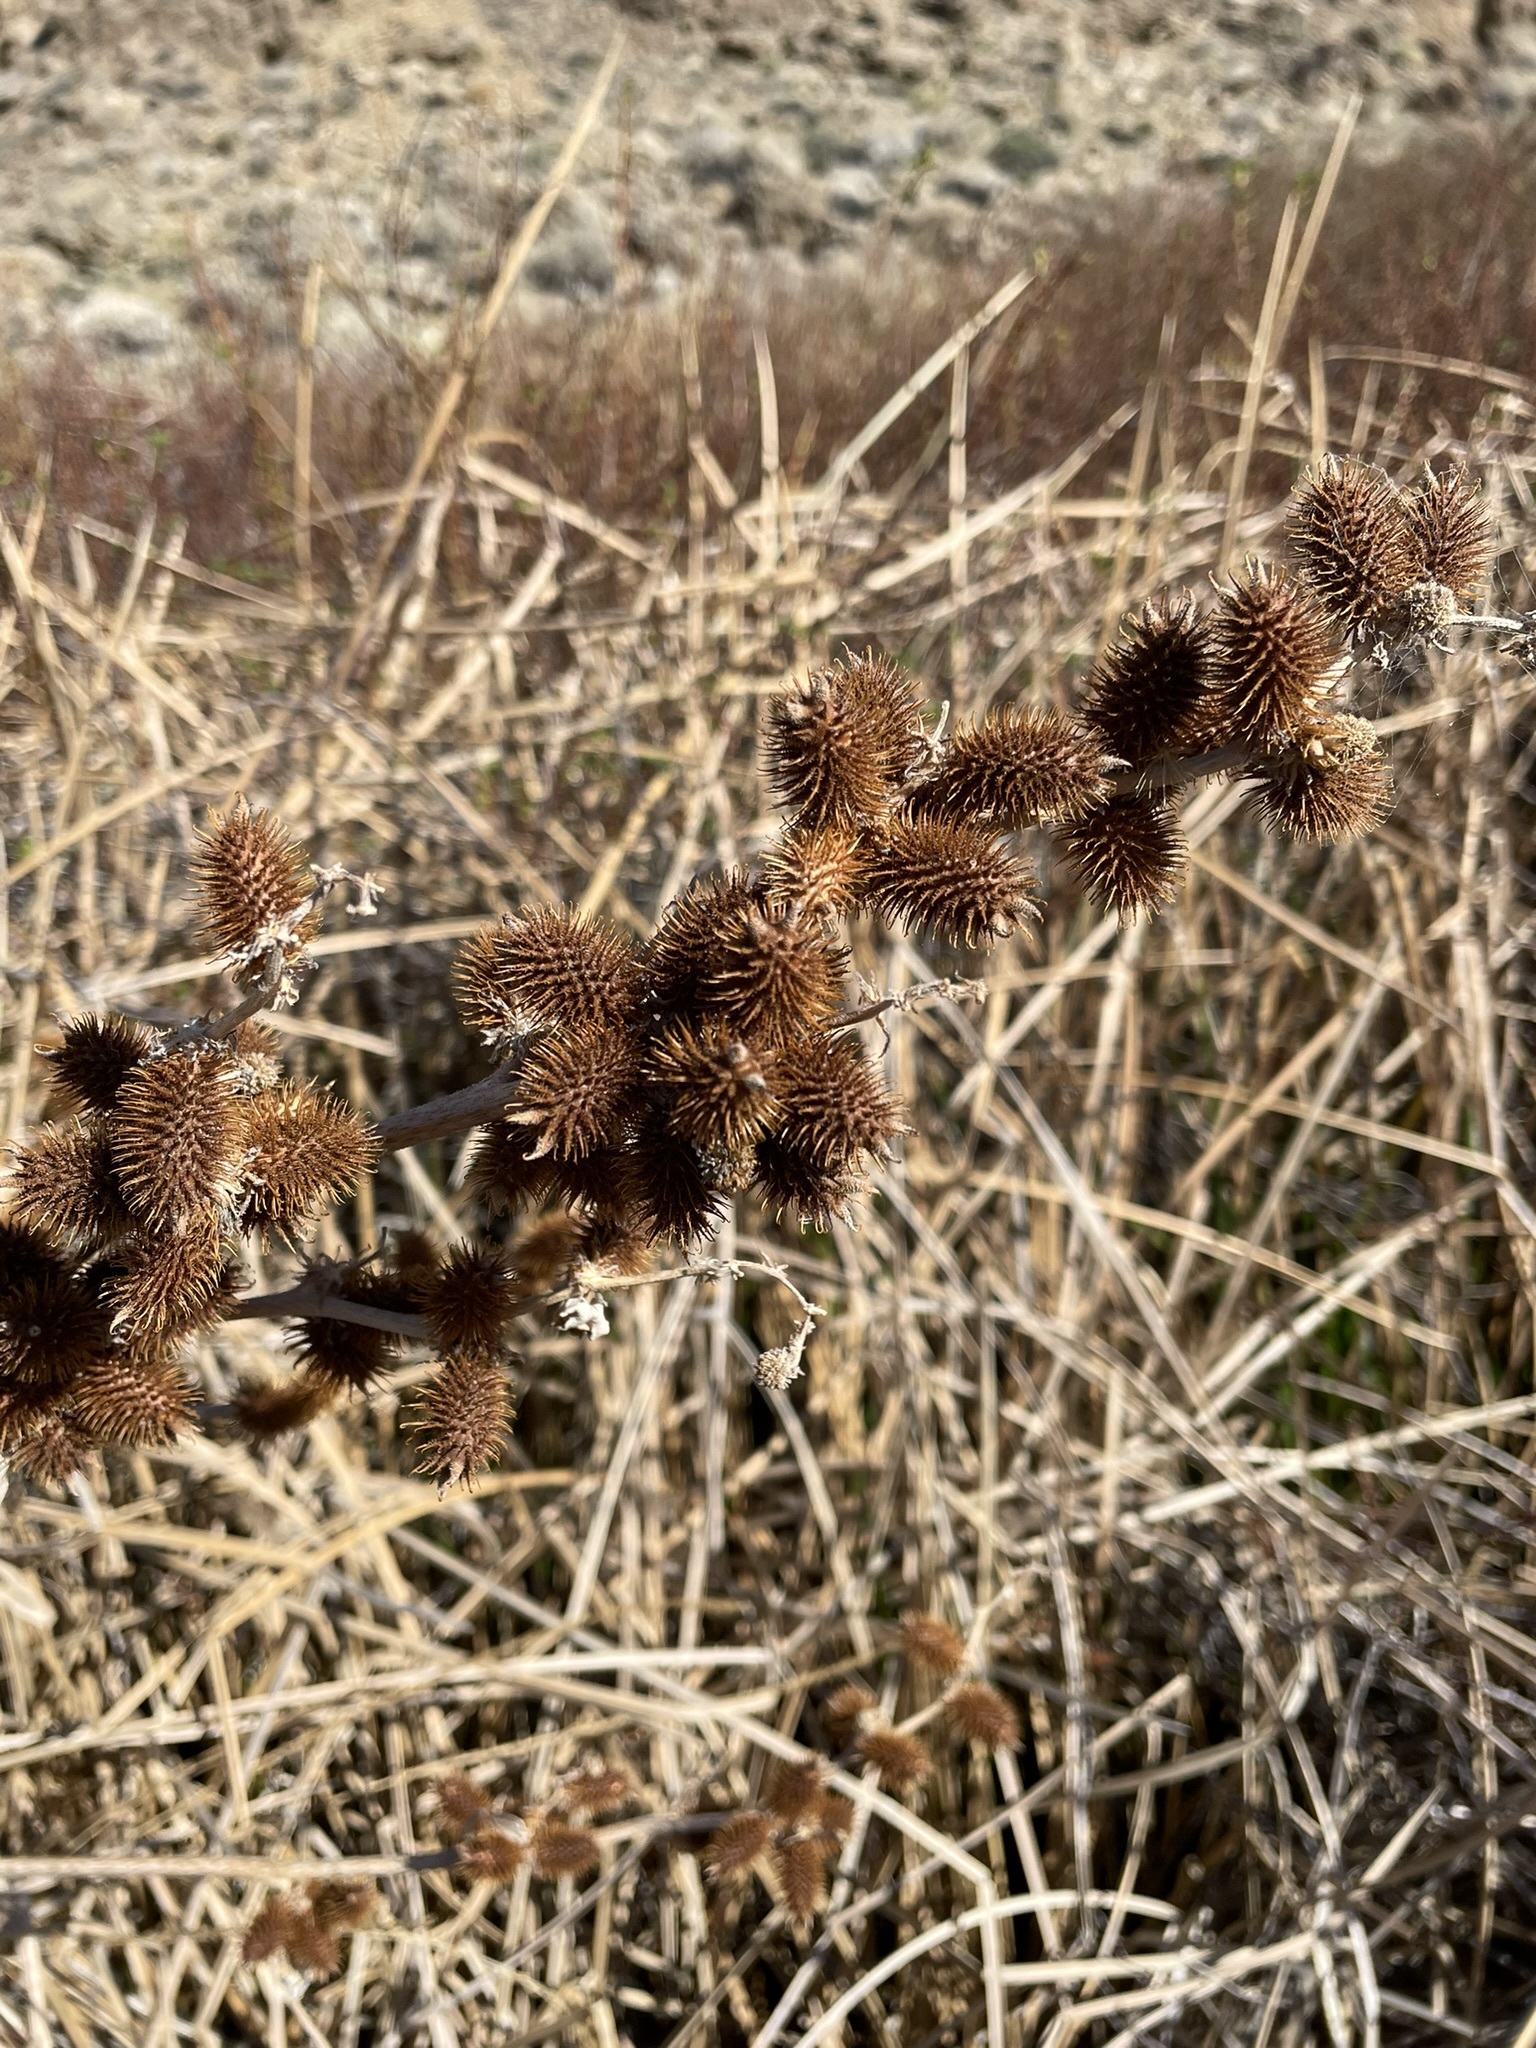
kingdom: Plantae
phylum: Tracheophyta
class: Magnoliopsida
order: Asterales
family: Asteraceae
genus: Xanthium
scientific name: Xanthium strumarium
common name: Rough cocklebur
